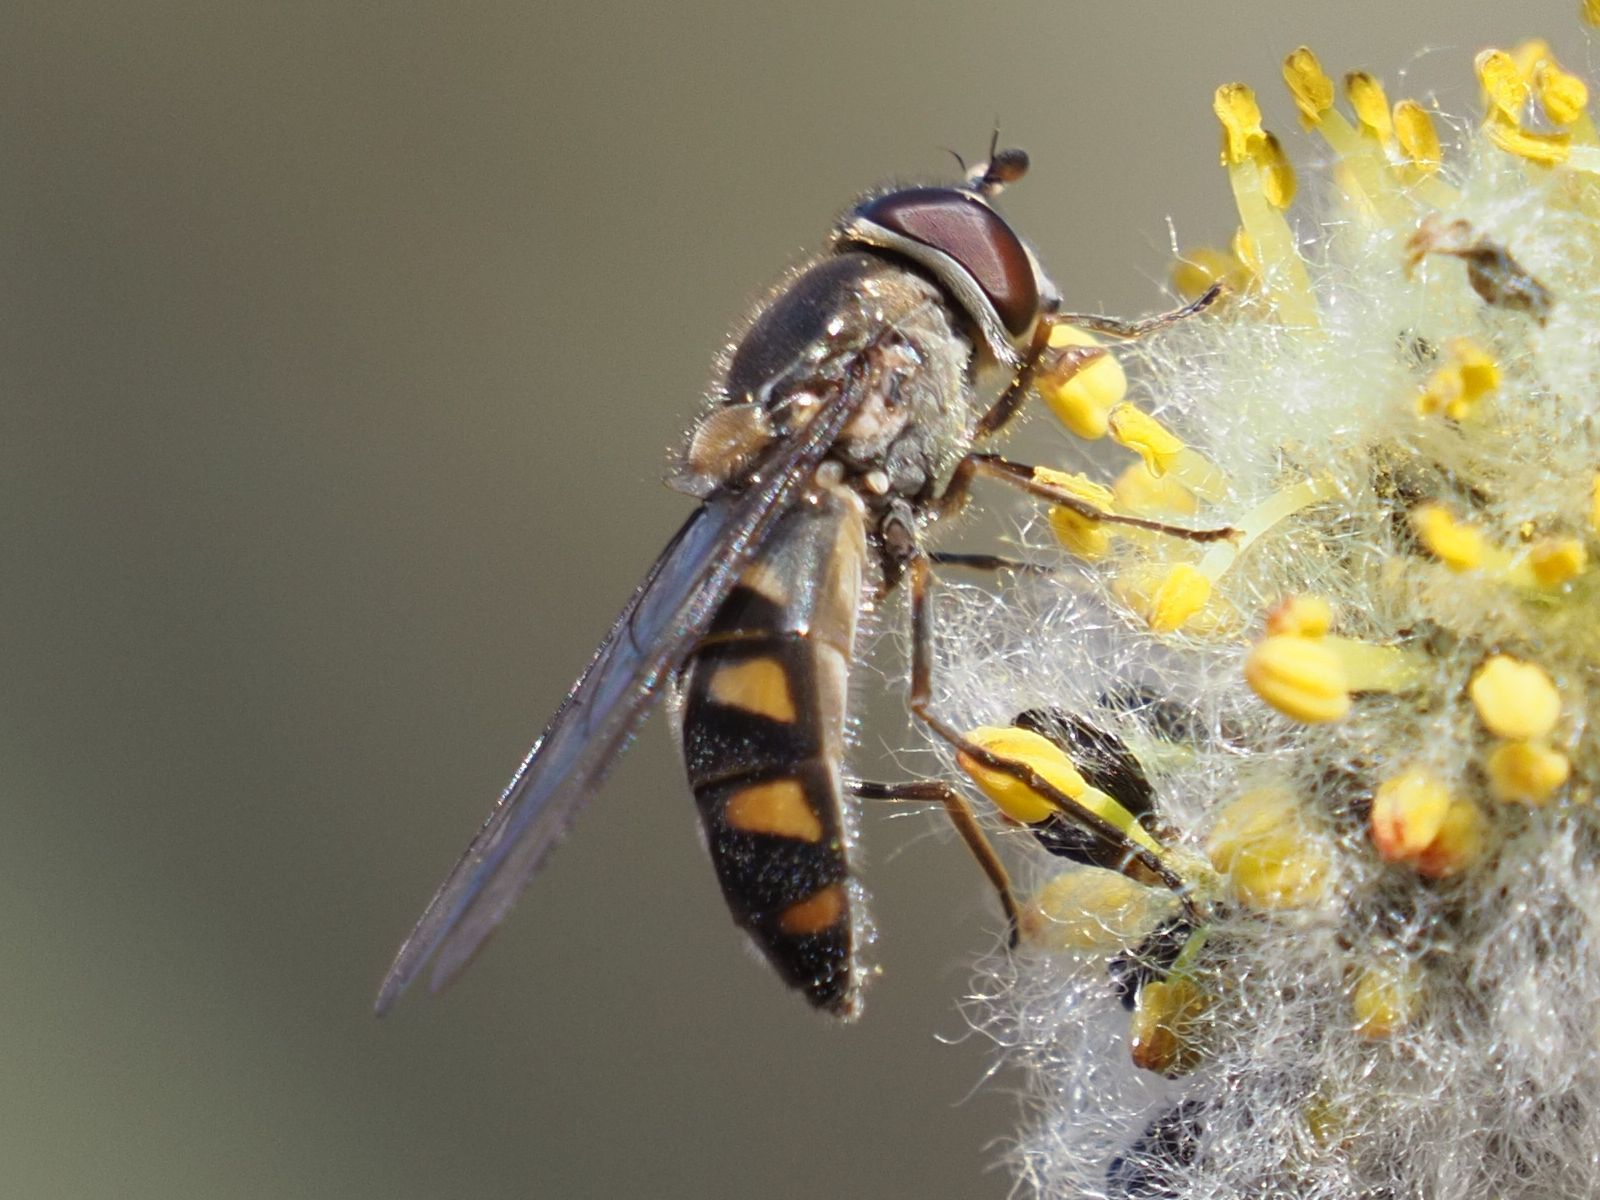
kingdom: Animalia
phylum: Arthropoda
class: Insecta
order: Diptera
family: Syrphidae
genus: Meliscaeva
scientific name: Meliscaeva auricollis
